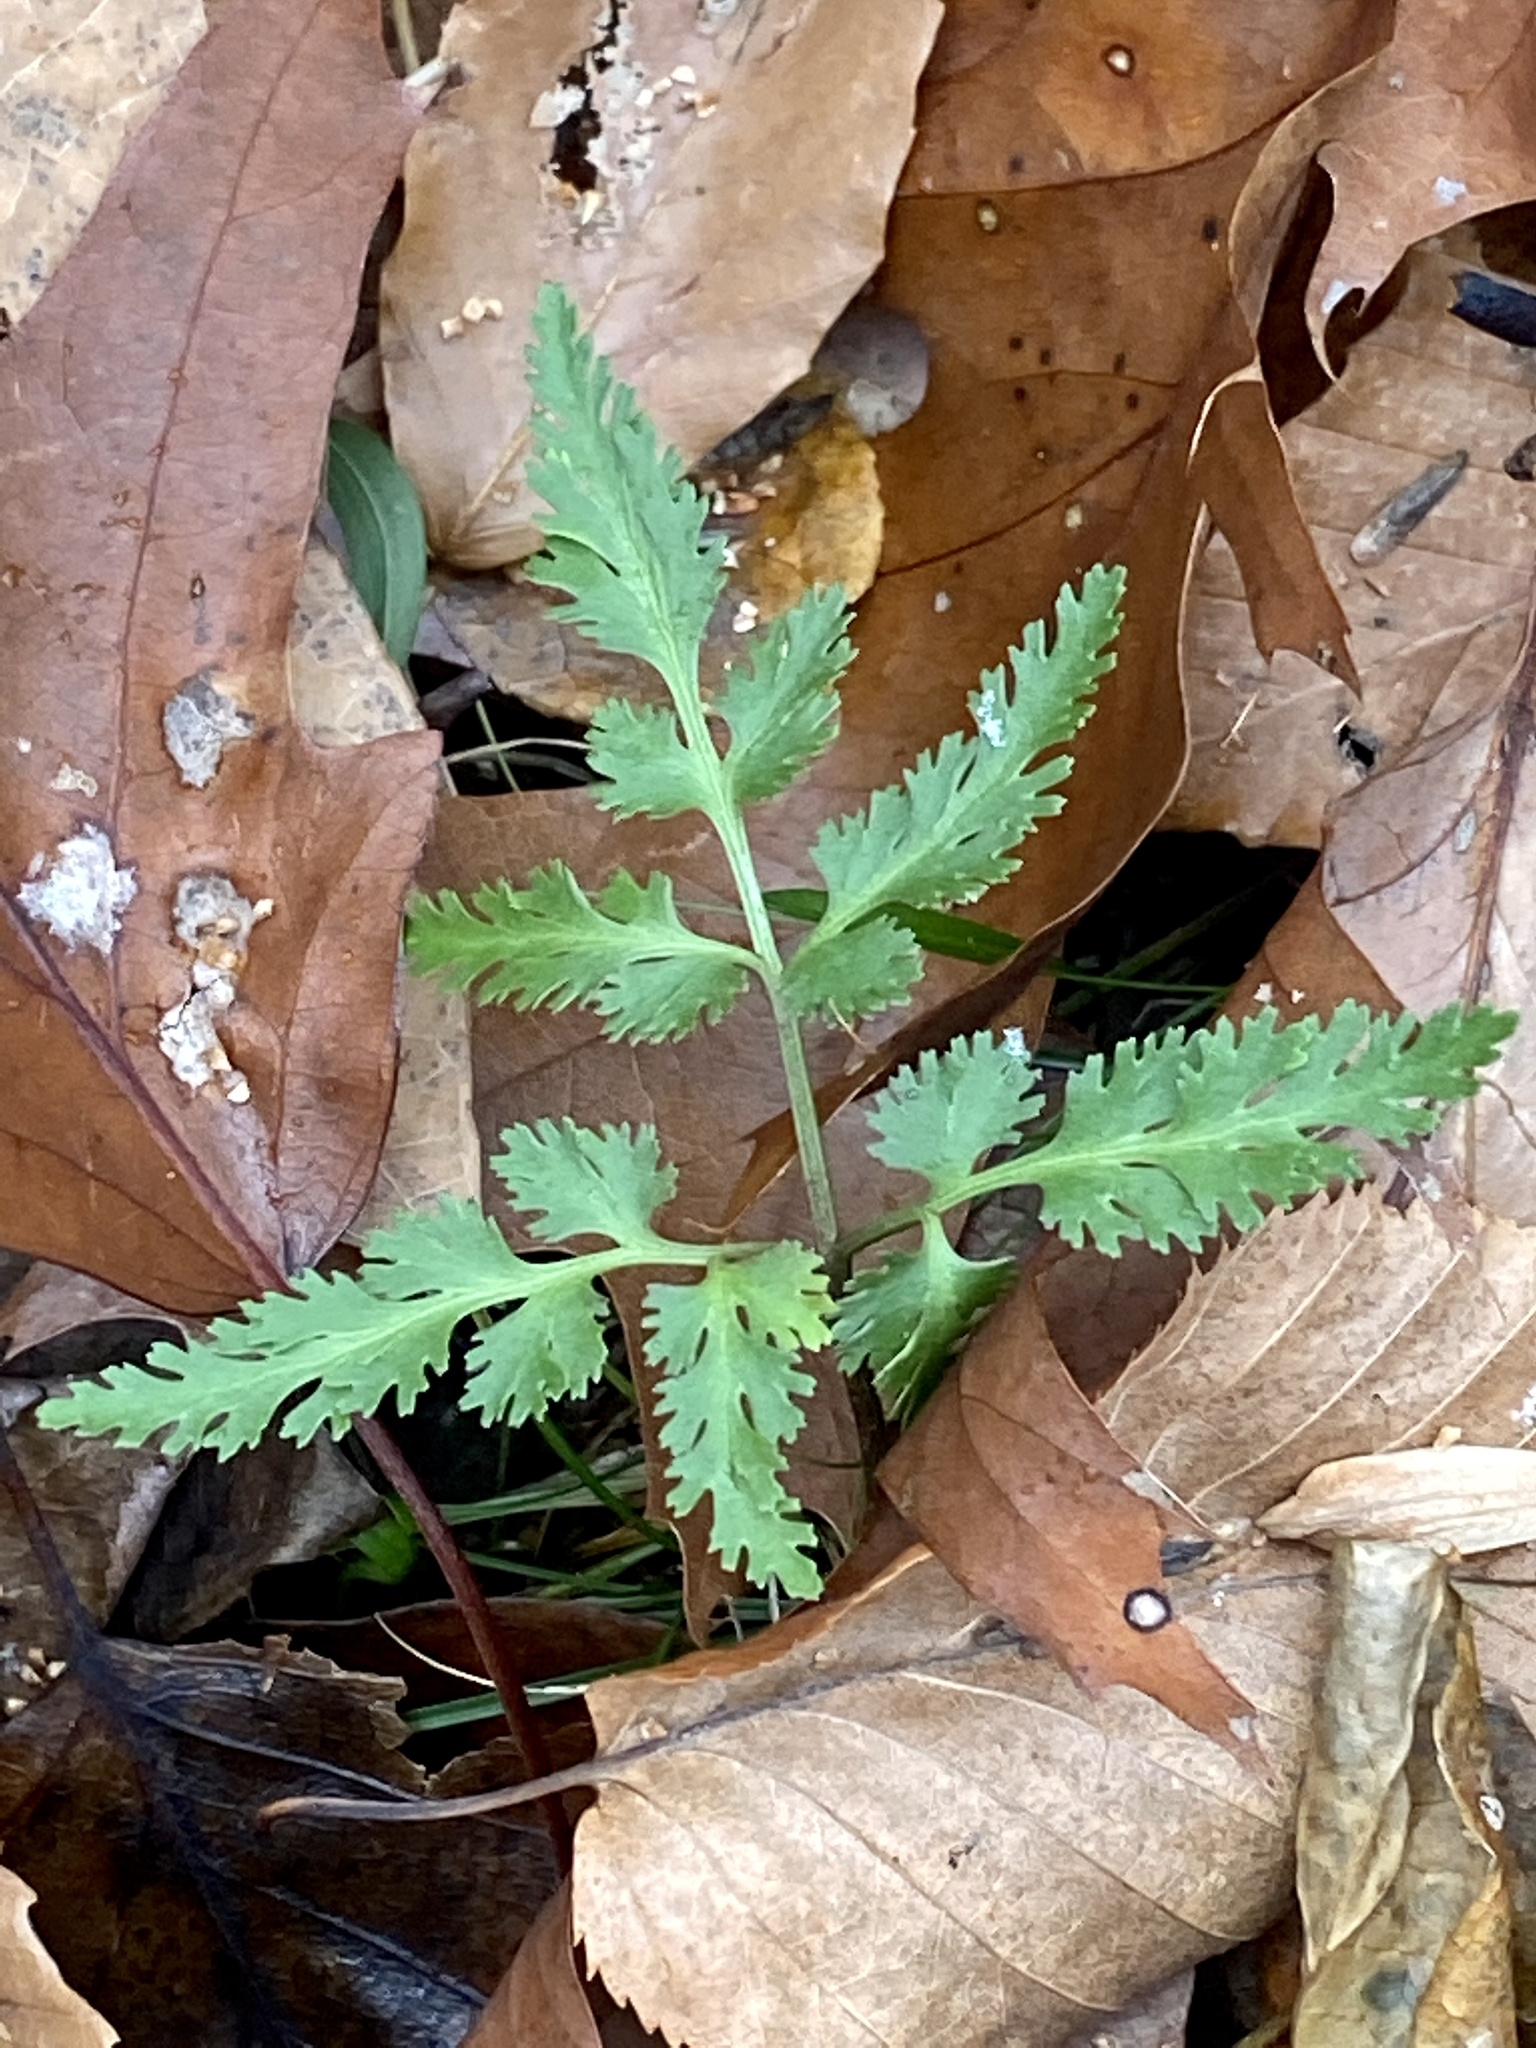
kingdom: Plantae
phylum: Tracheophyta
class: Polypodiopsida
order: Ophioglossales
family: Ophioglossaceae
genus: Sceptridium
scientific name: Sceptridium dissectum
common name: Cut-leaved grapefern
